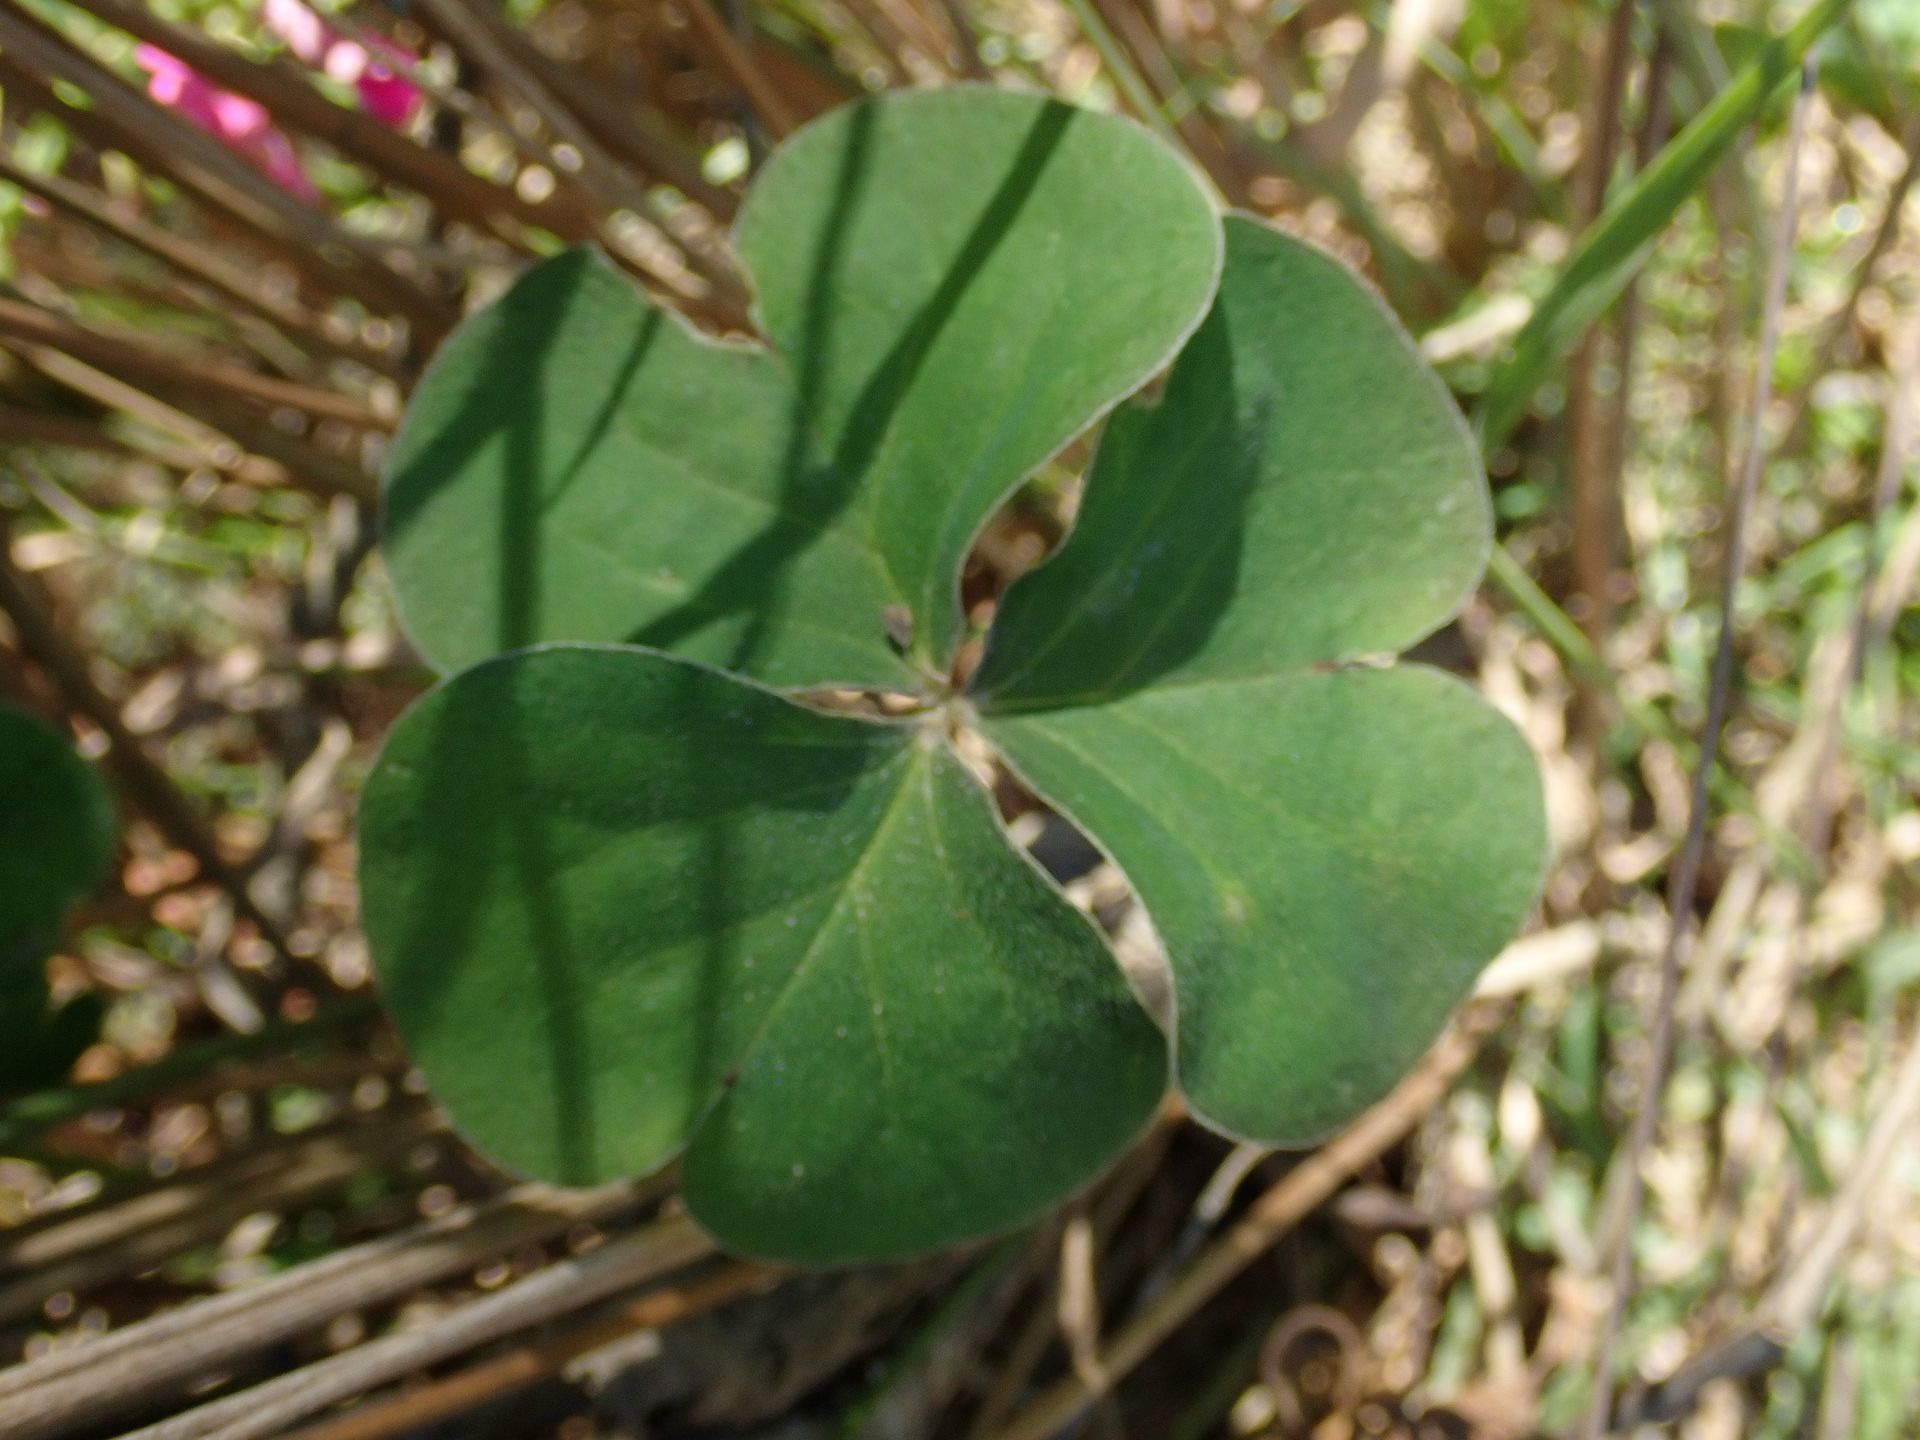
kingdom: Plantae
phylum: Tracheophyta
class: Magnoliopsida
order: Oxalidales
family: Oxalidaceae
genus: Oxalis
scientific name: Oxalis articulata
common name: Pink-sorrel
